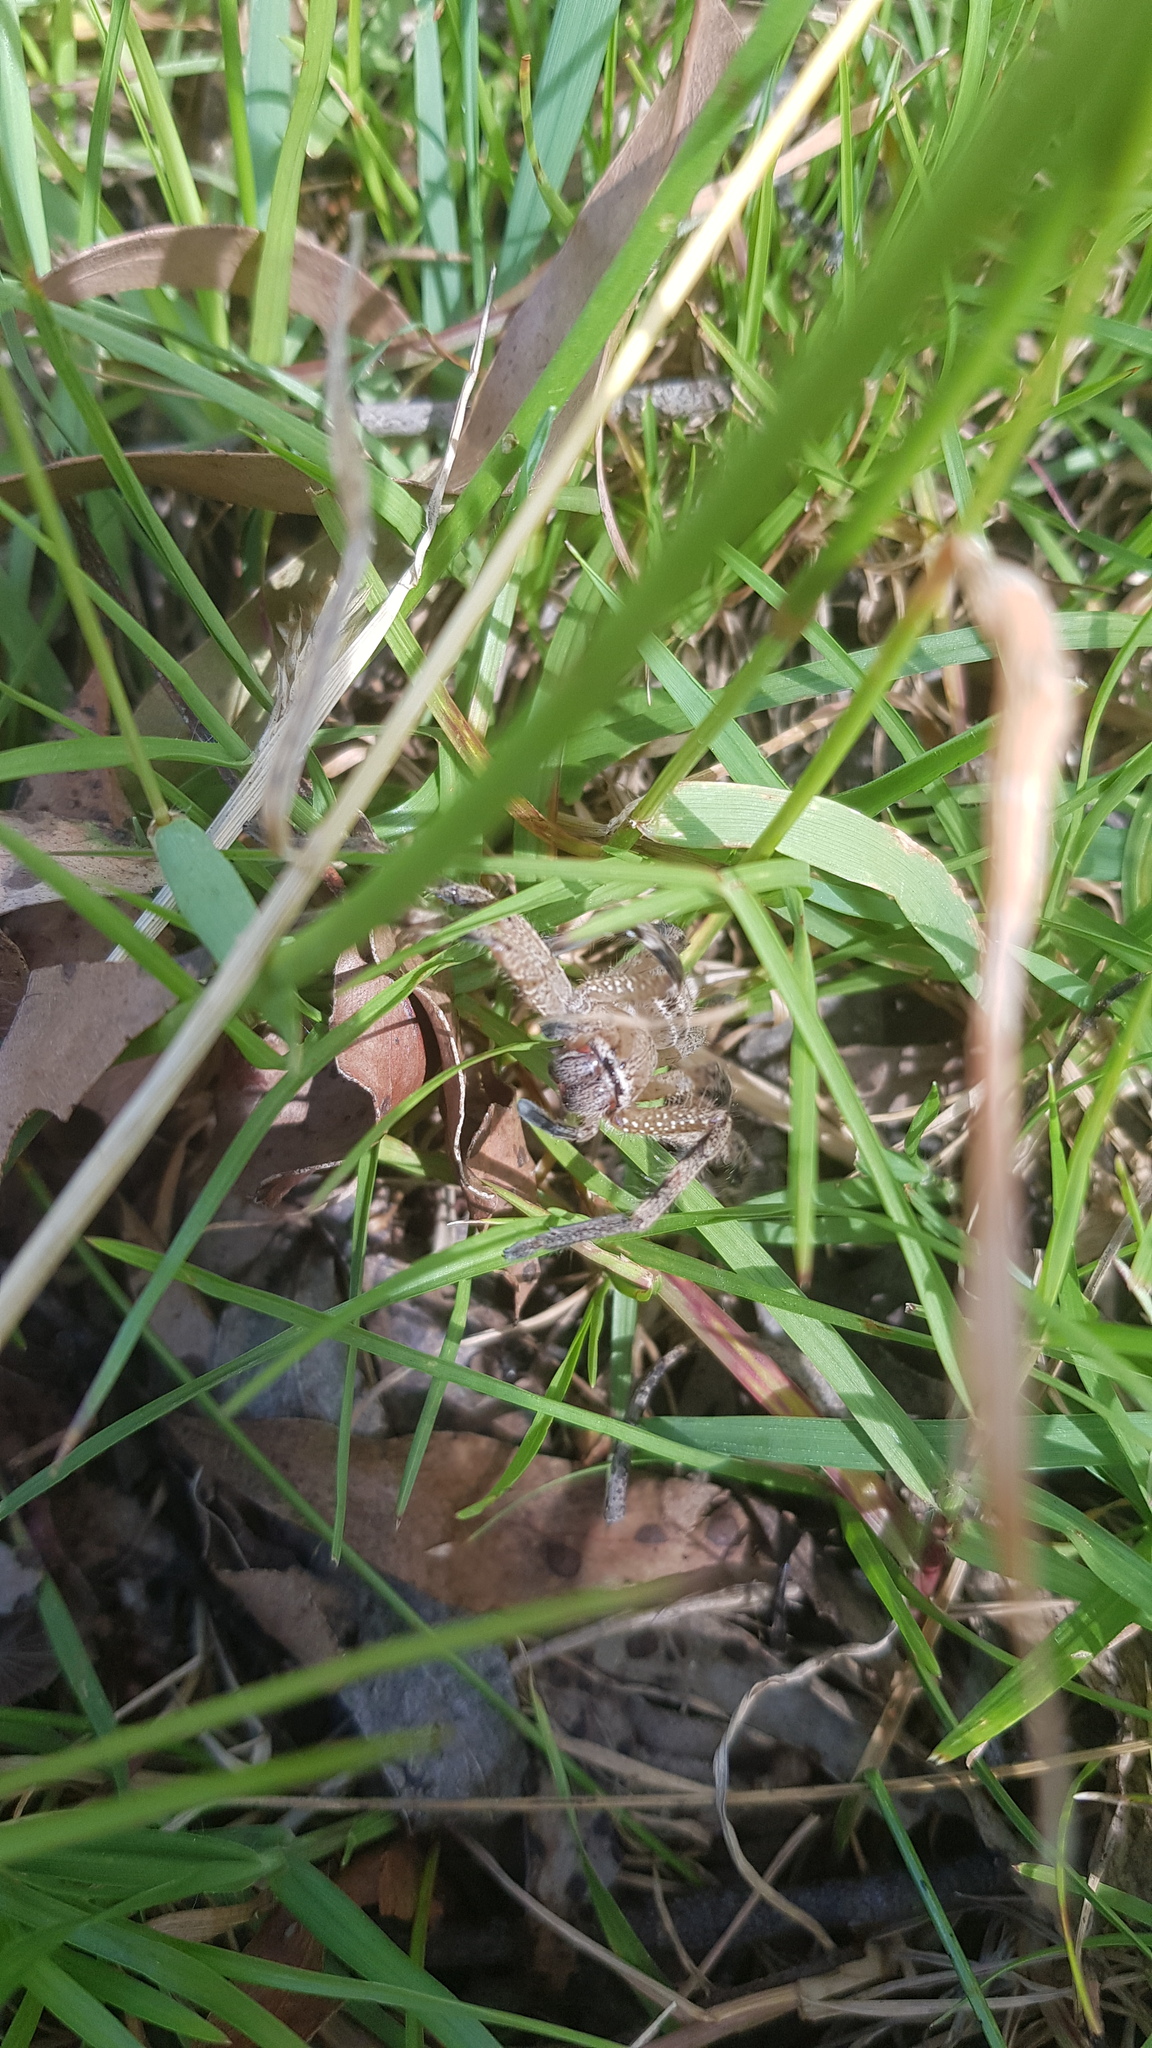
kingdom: Animalia
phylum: Arthropoda
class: Arachnida
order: Araneae
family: Sparassidae
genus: Neosparassus
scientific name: Neosparassus calligaster
